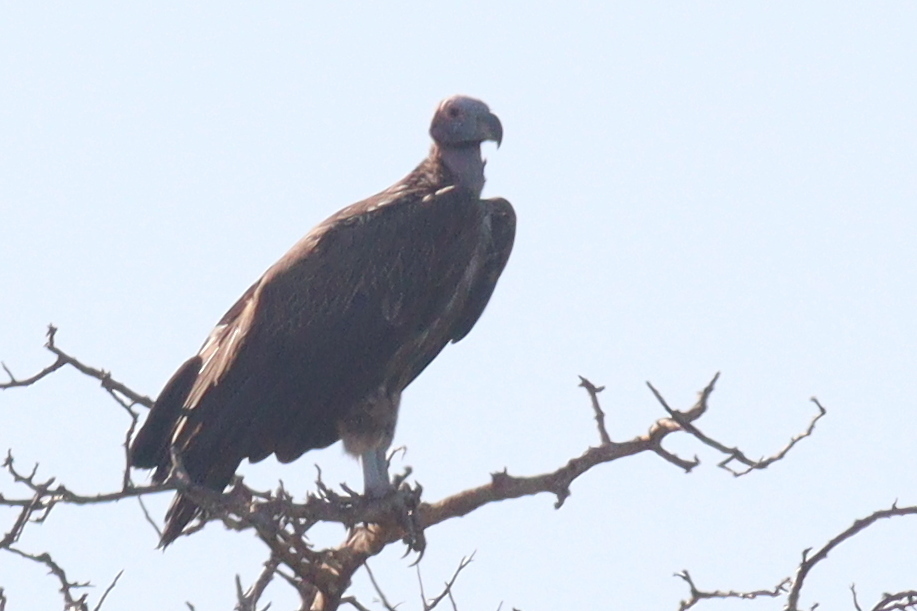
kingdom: Animalia
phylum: Chordata
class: Aves
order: Accipitriformes
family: Accipitridae
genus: Torgos
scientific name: Torgos tracheliotos
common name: Lappet-faced vulture
